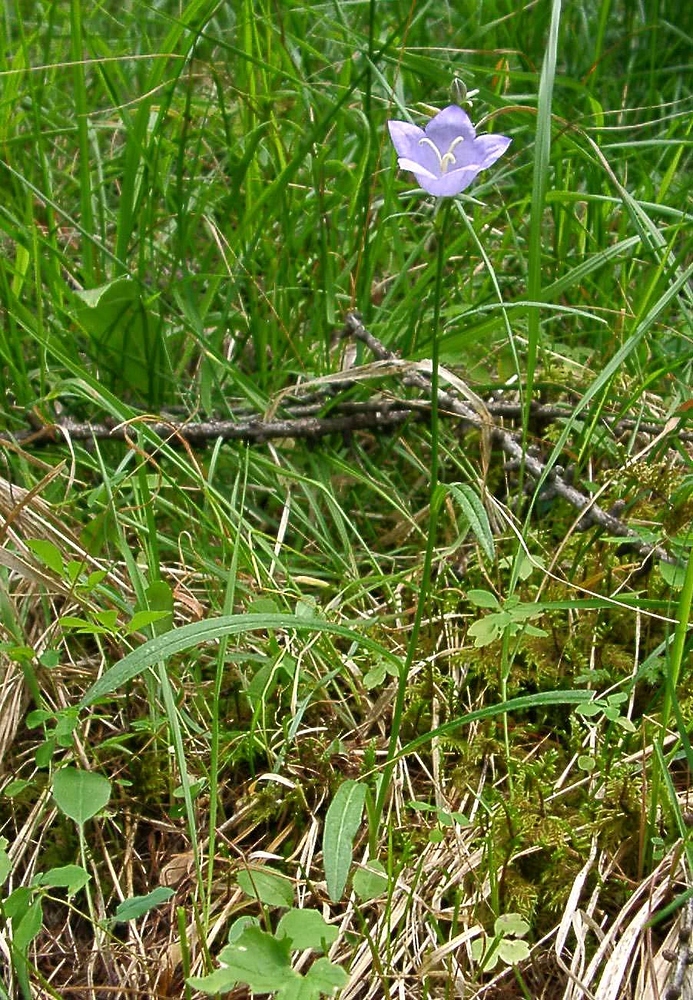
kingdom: Plantae
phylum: Tracheophyta
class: Magnoliopsida
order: Asterales
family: Campanulaceae
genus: Campanula
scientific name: Campanula persicifolia
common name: Peach-leaved bellflower
